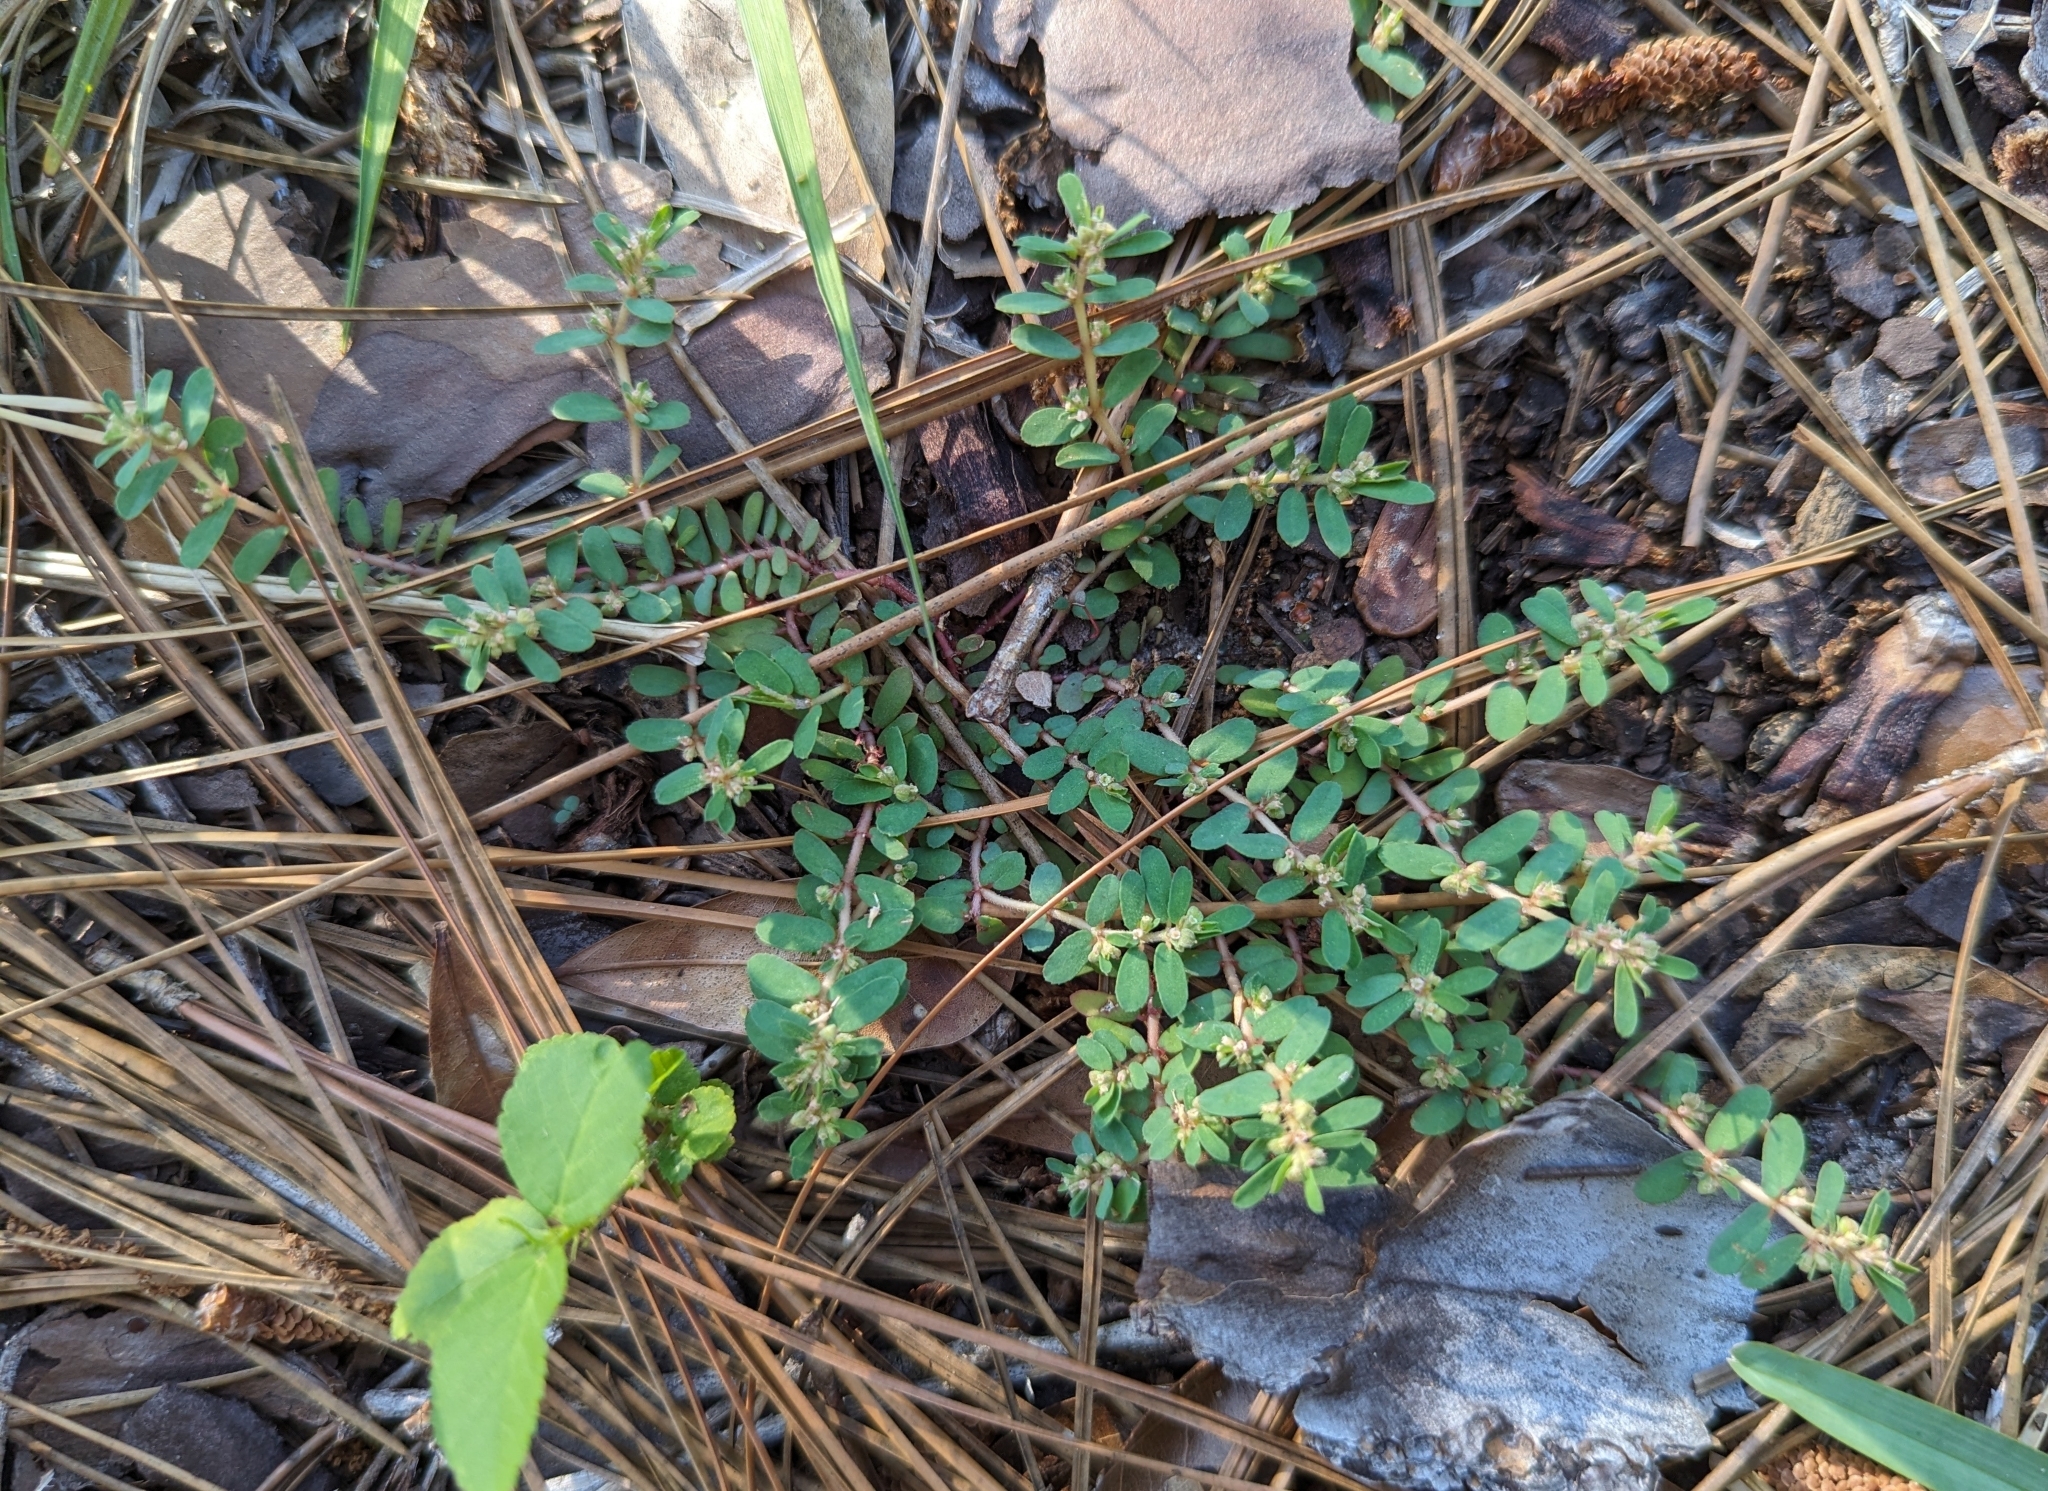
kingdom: Plantae
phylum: Tracheophyta
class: Magnoliopsida
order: Malpighiales
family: Euphorbiaceae
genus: Euphorbia
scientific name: Euphorbia maculata
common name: Spotted spurge
